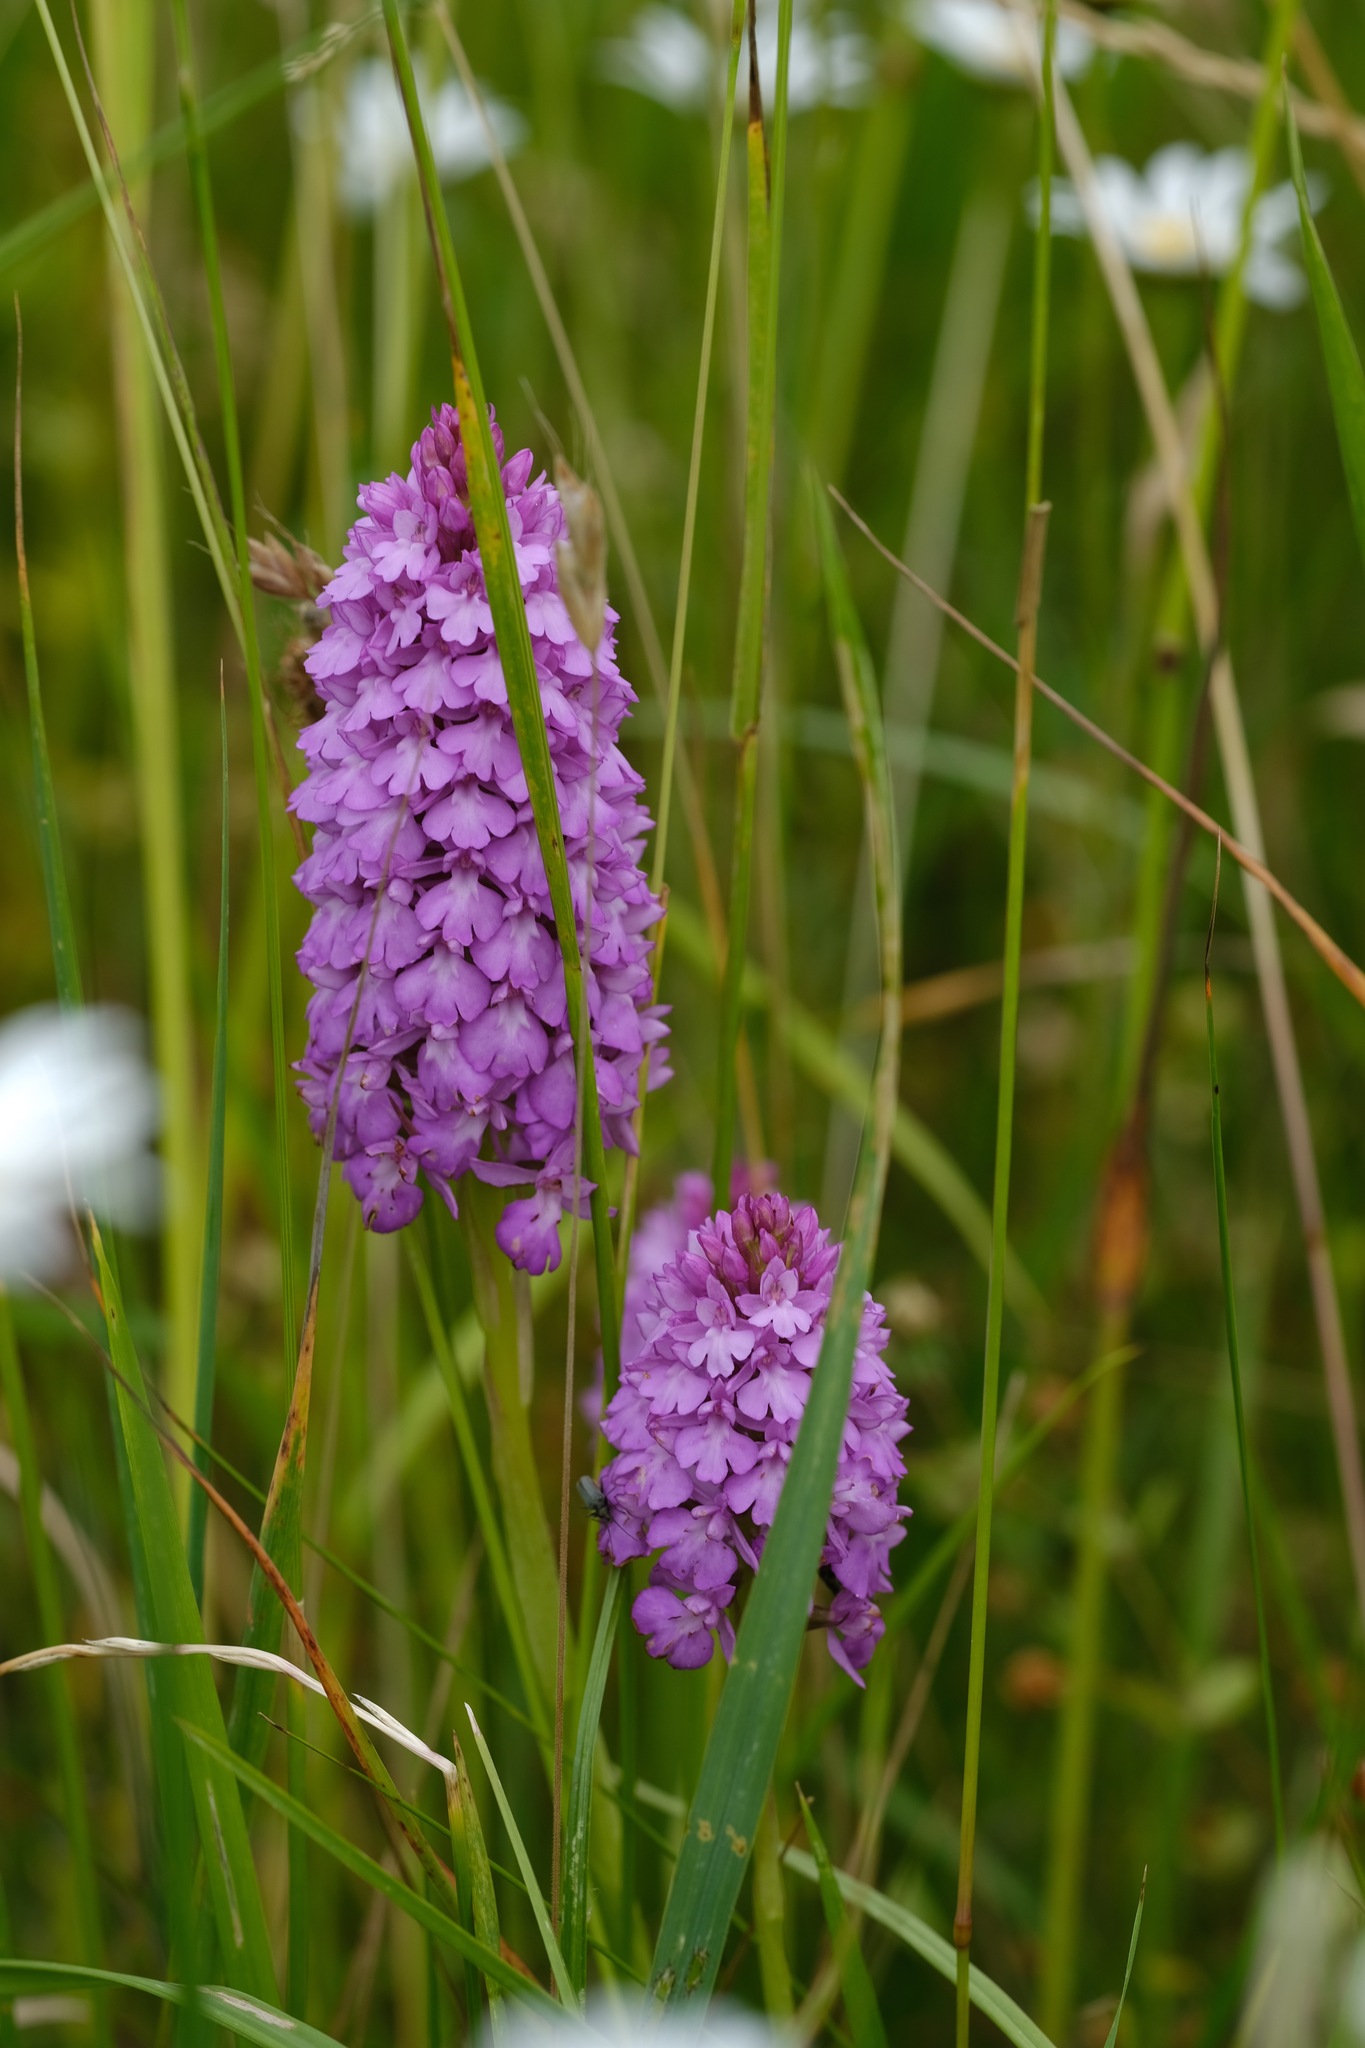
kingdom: Plantae
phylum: Tracheophyta
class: Liliopsida
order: Asparagales
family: Orchidaceae
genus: Anacamptis
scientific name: Anacamptis pyramidalis
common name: Pyramidal orchid
